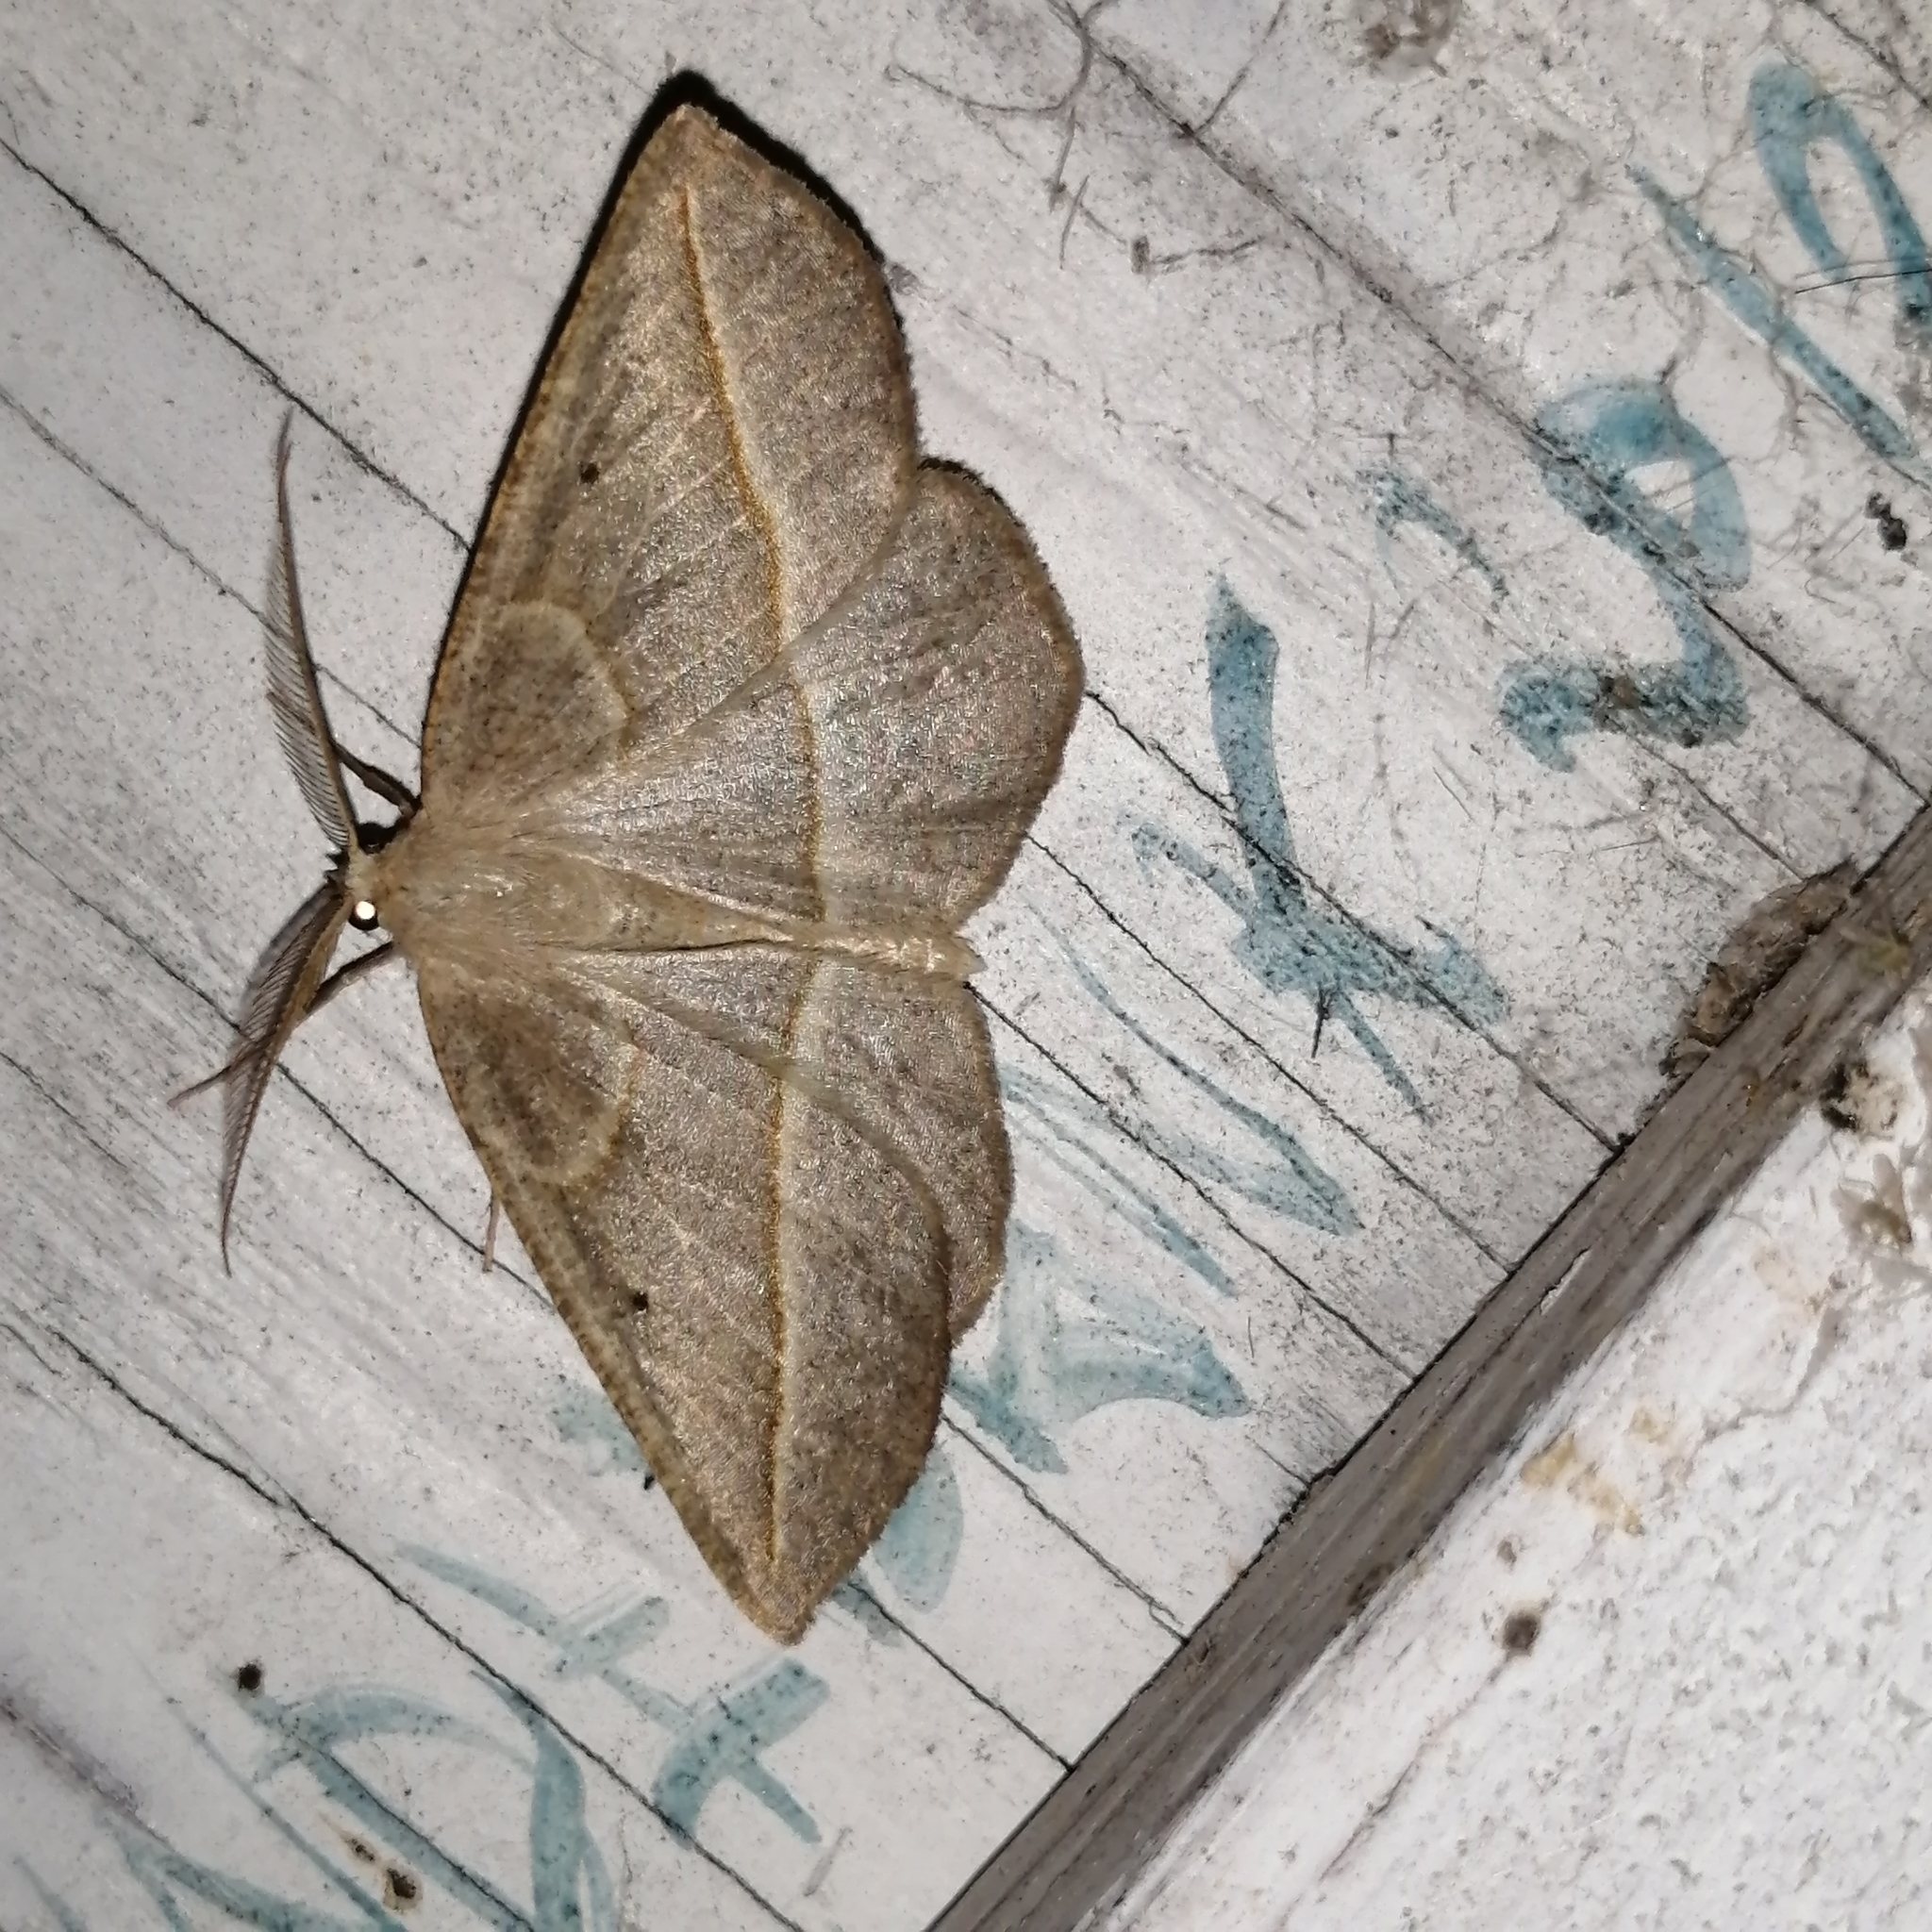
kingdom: Animalia
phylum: Arthropoda
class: Insecta
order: Lepidoptera
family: Geometridae
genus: Eusarca
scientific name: Eusarca confusaria
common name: Confused eusarca
